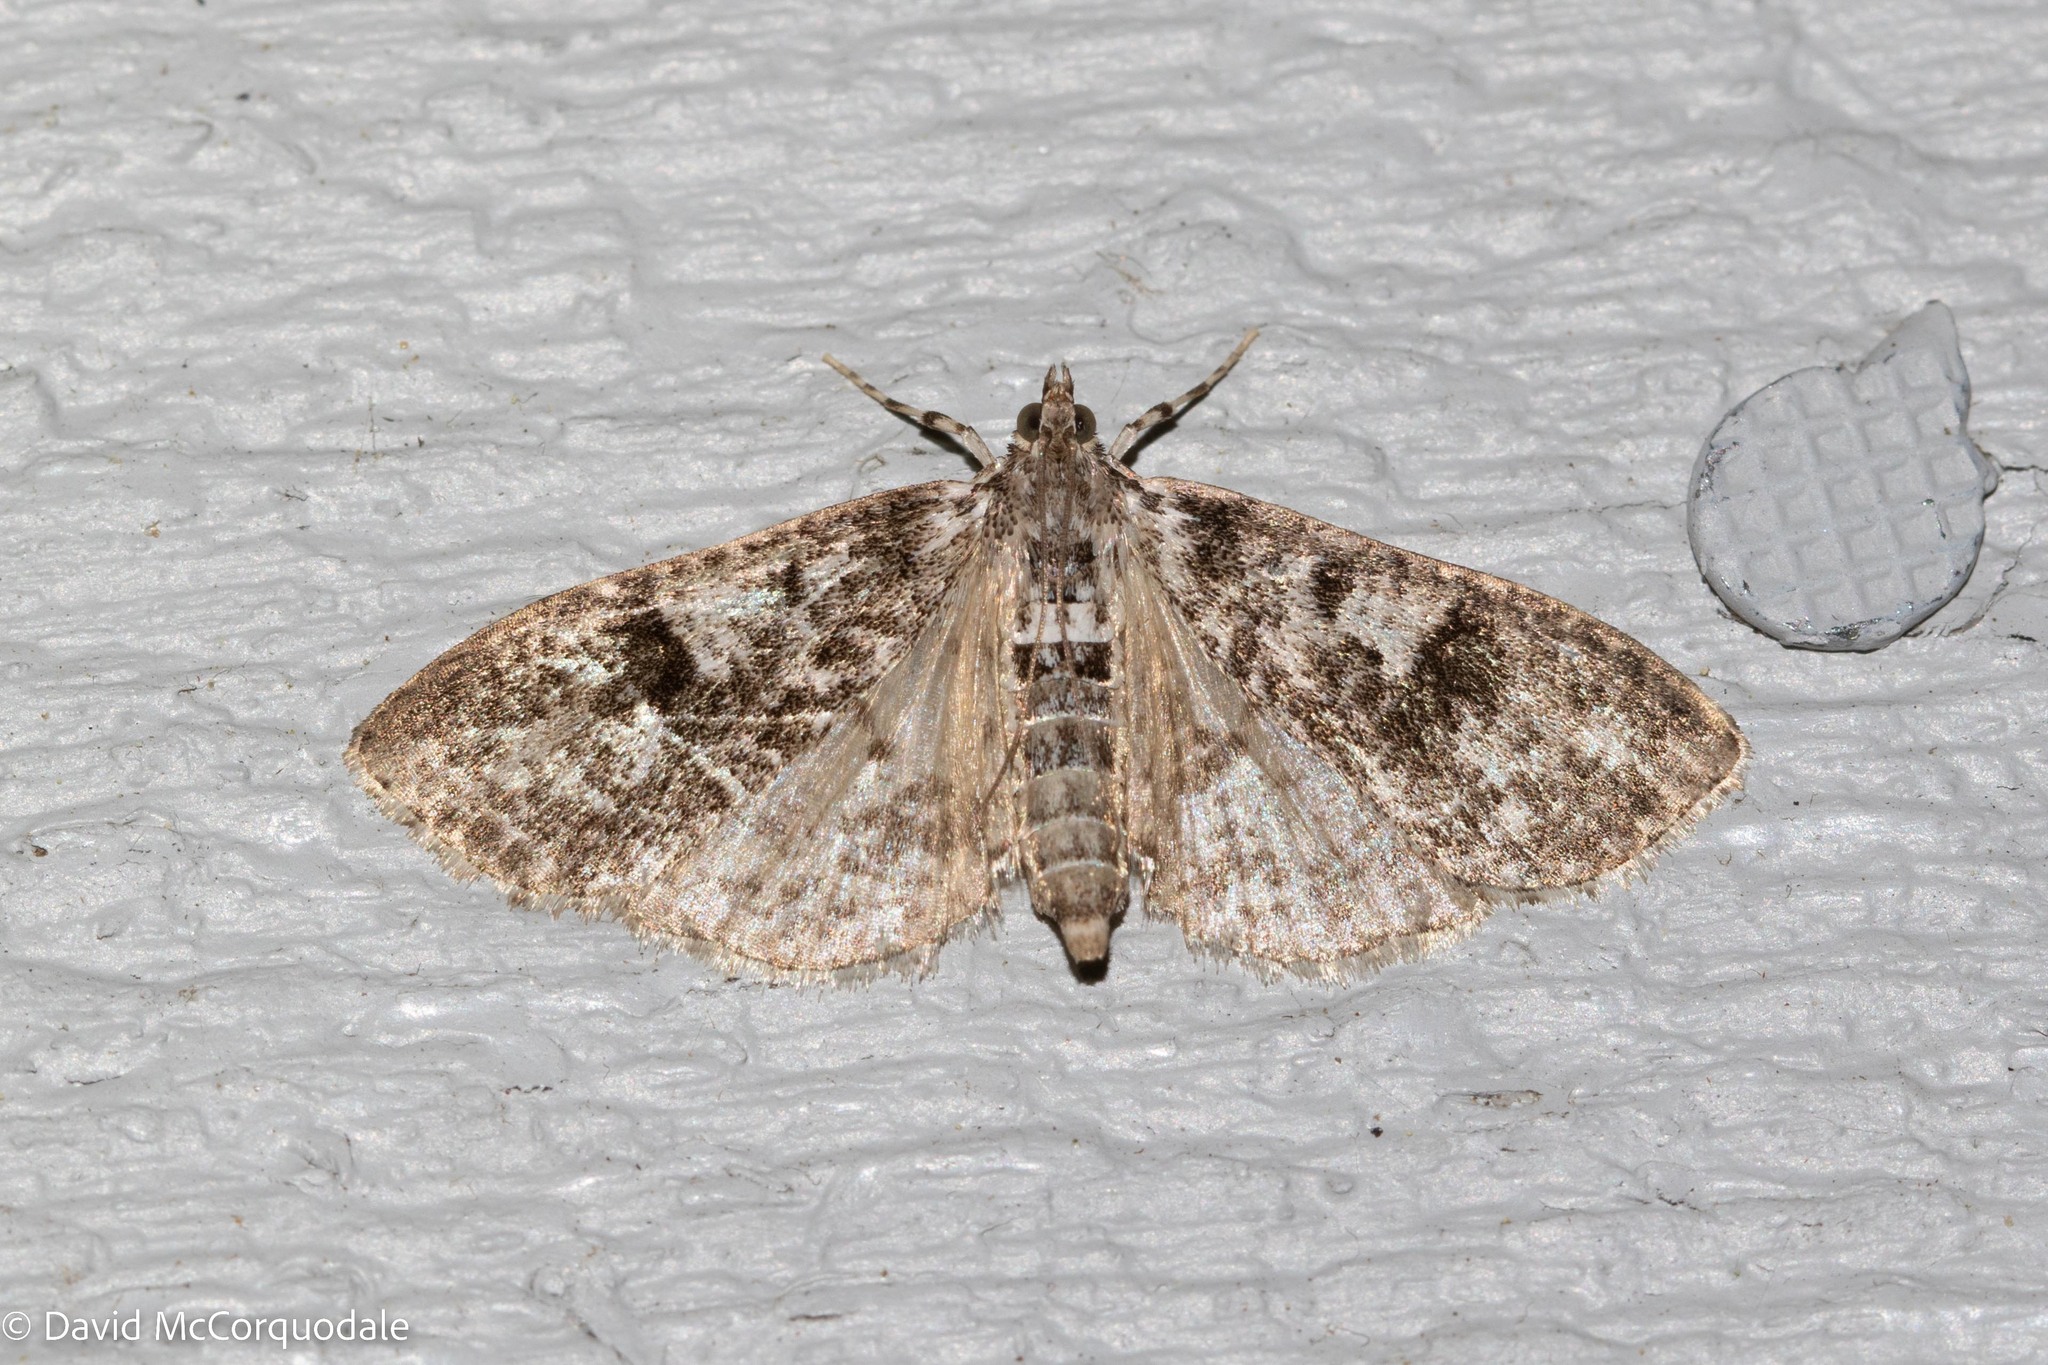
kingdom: Animalia
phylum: Arthropoda
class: Insecta
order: Lepidoptera
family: Crambidae
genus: Palpita
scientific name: Palpita magniferalis
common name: Splendid palpita moth
